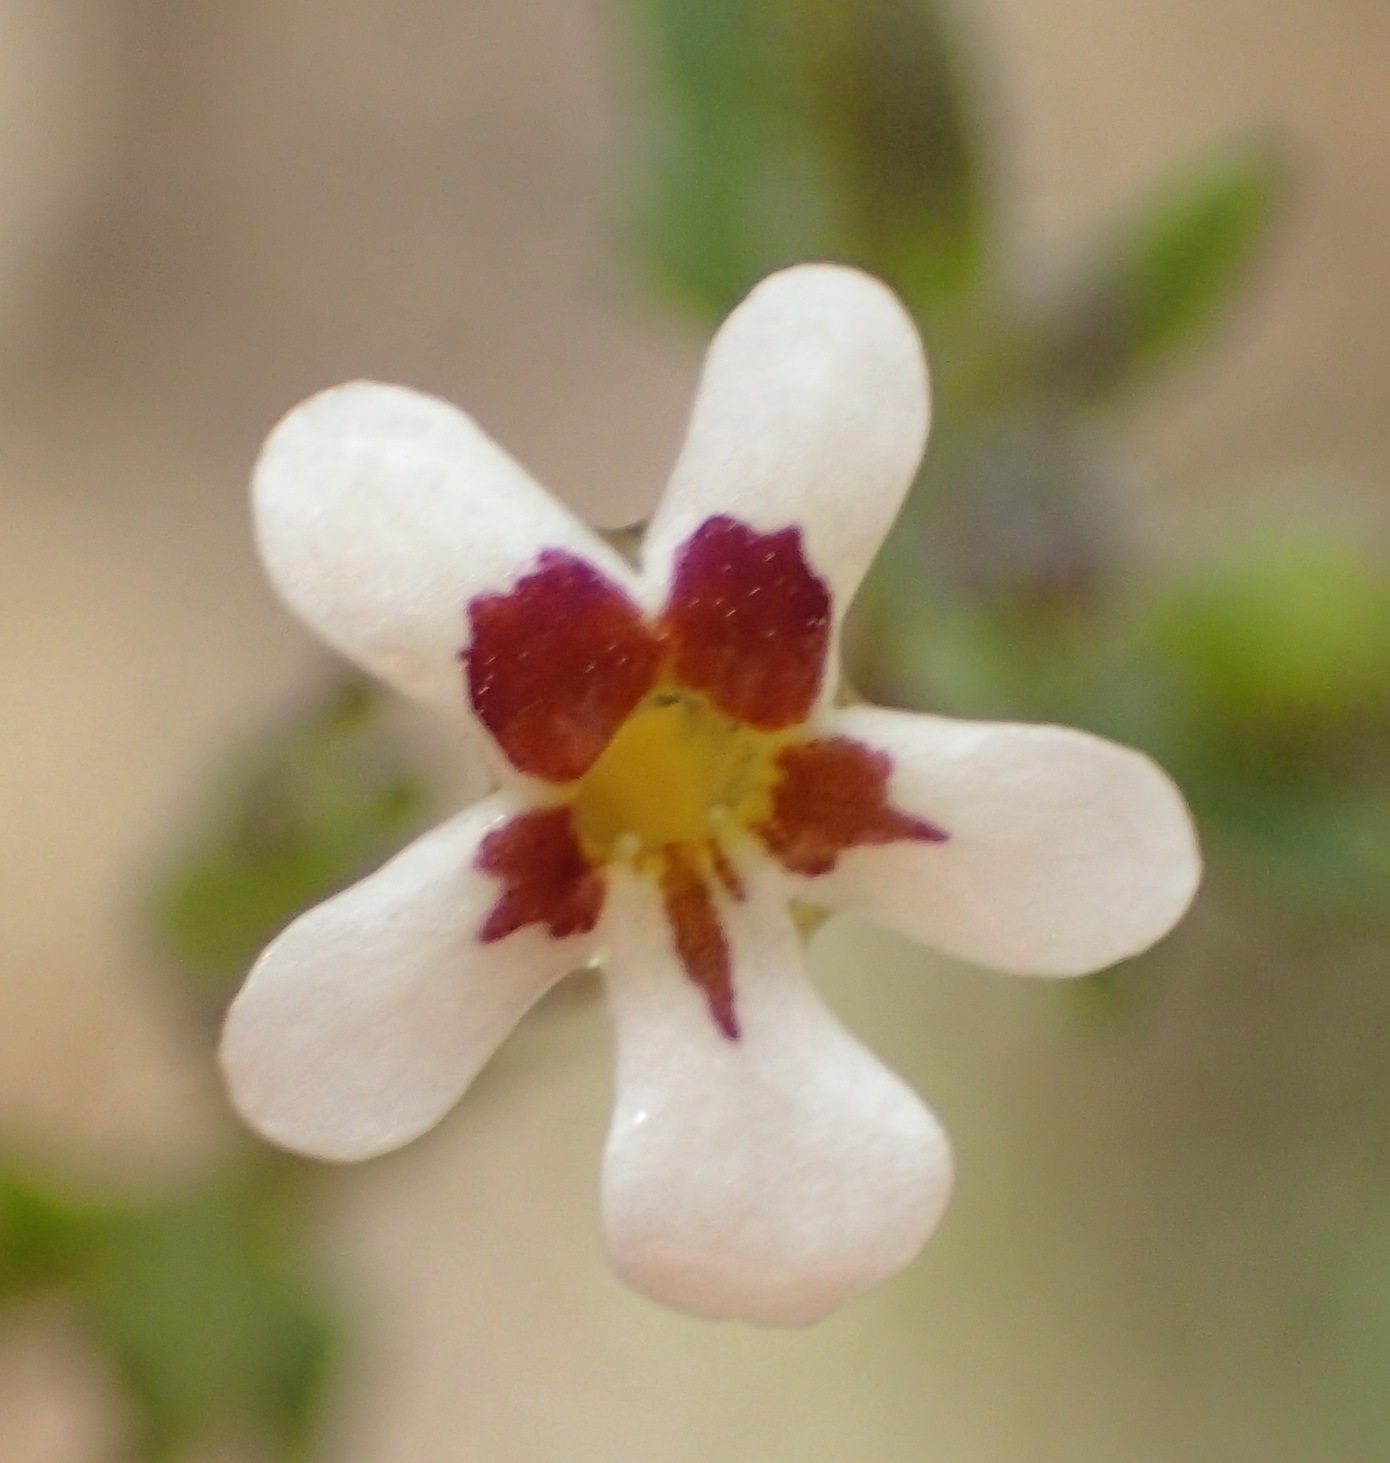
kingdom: Plantae
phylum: Tracheophyta
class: Magnoliopsida
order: Lamiales
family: Scrophulariaceae
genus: Lyperia
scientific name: Lyperia antirrhinoides
